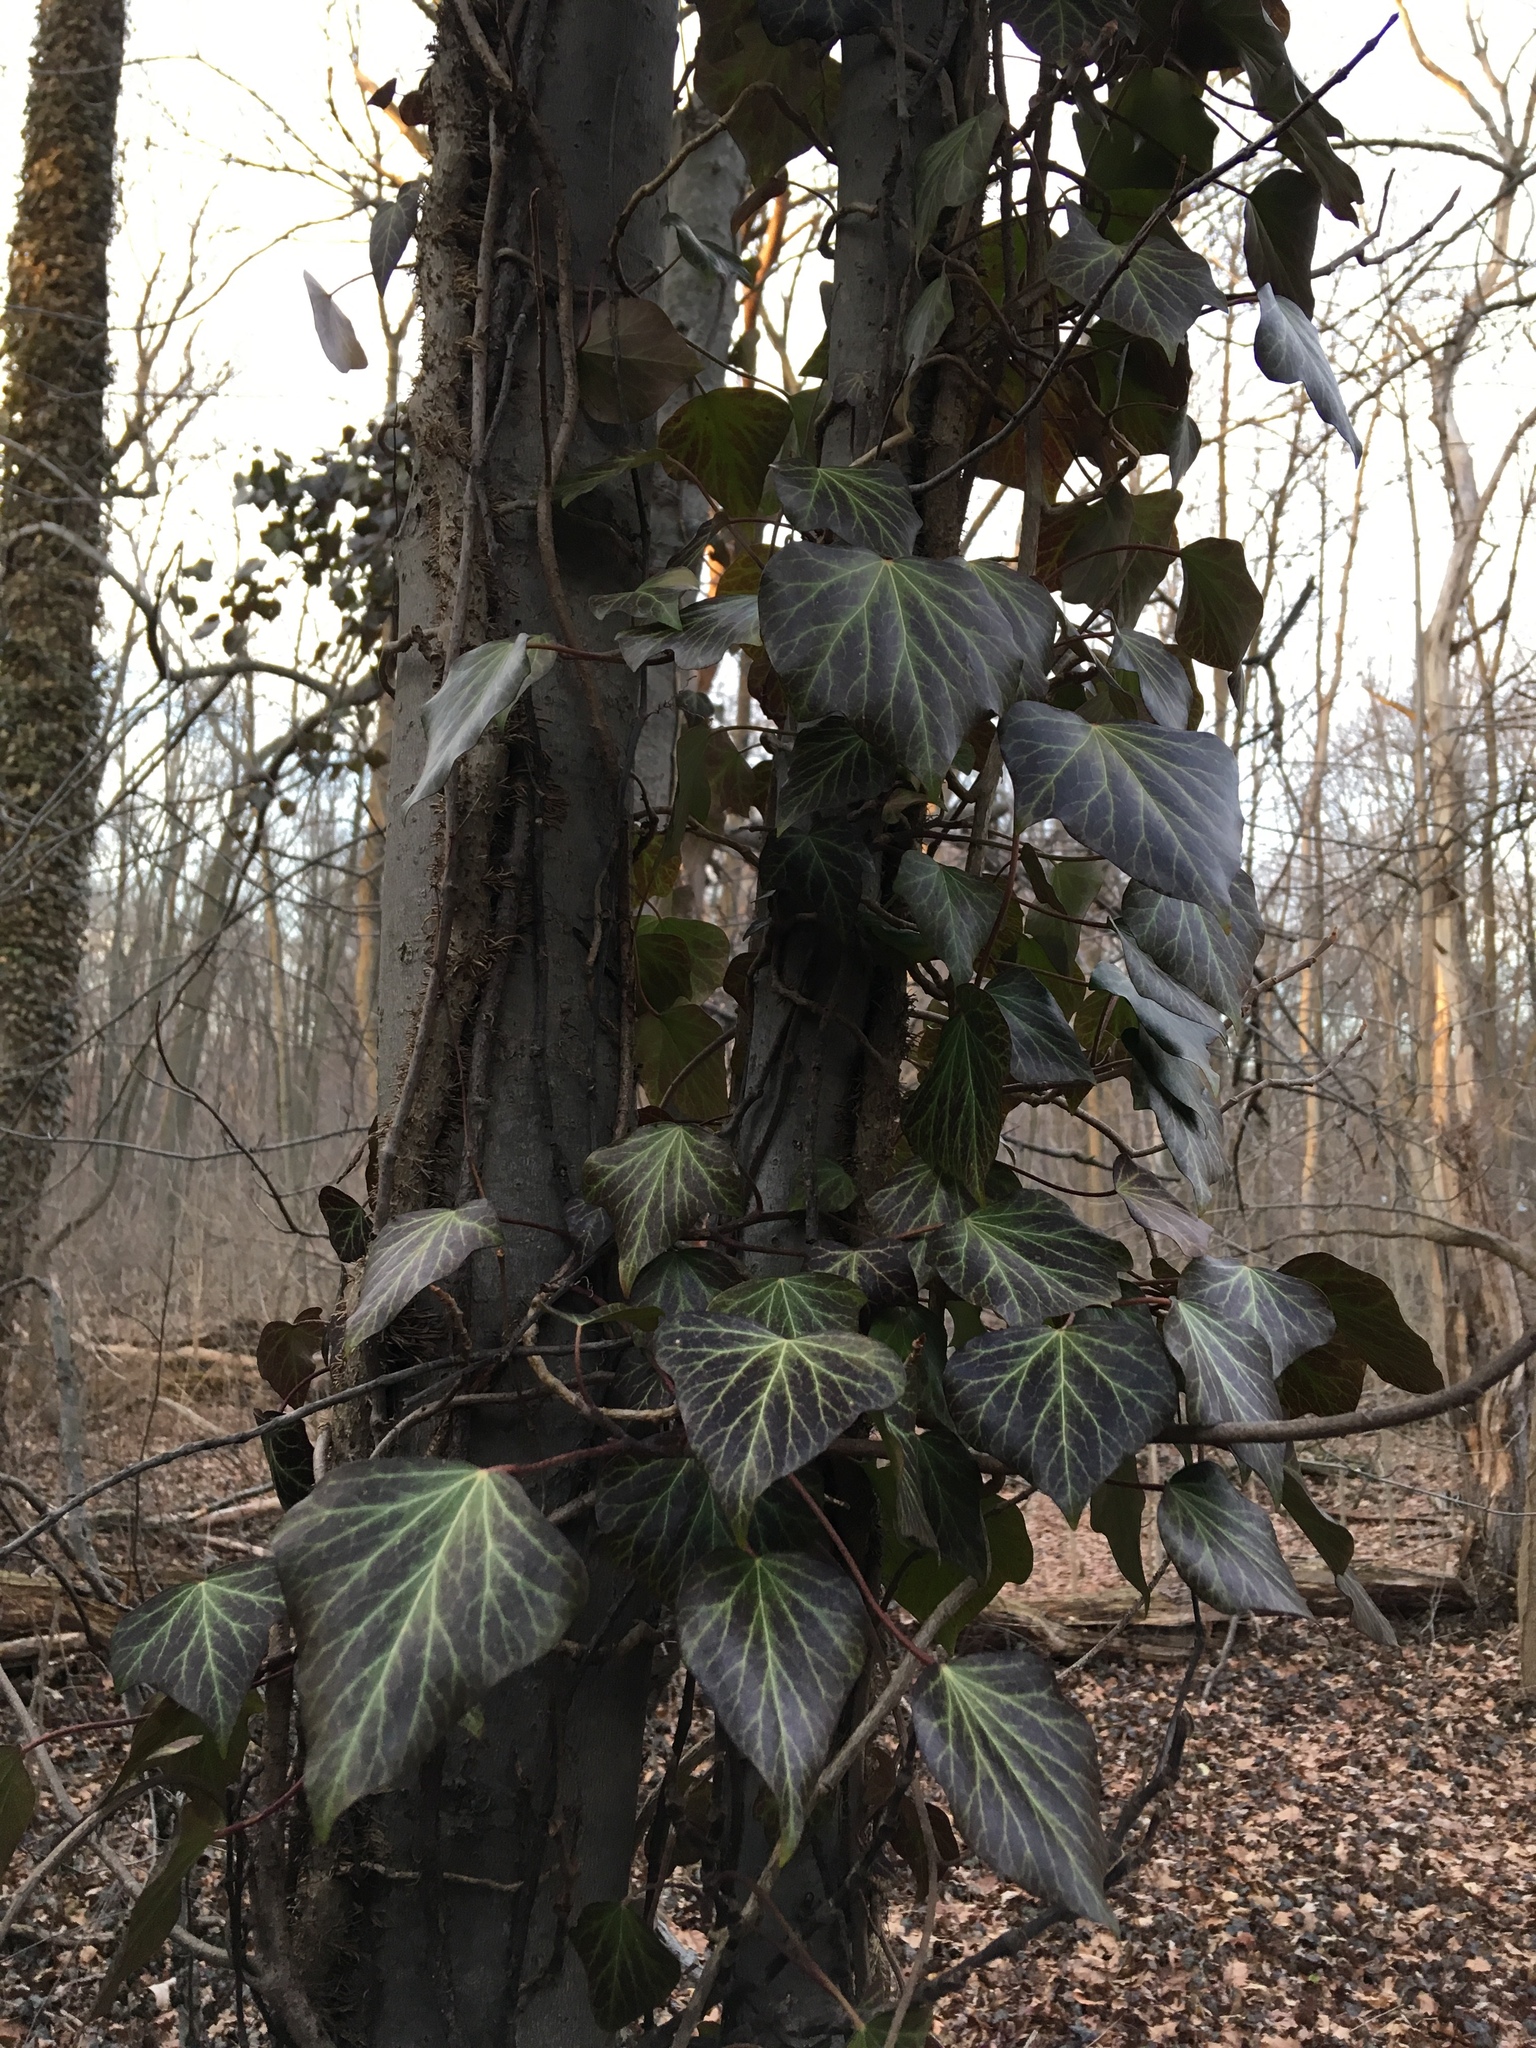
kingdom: Plantae
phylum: Tracheophyta
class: Magnoliopsida
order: Apiales
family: Araliaceae
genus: Hedera
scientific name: Hedera helix
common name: Ivy
